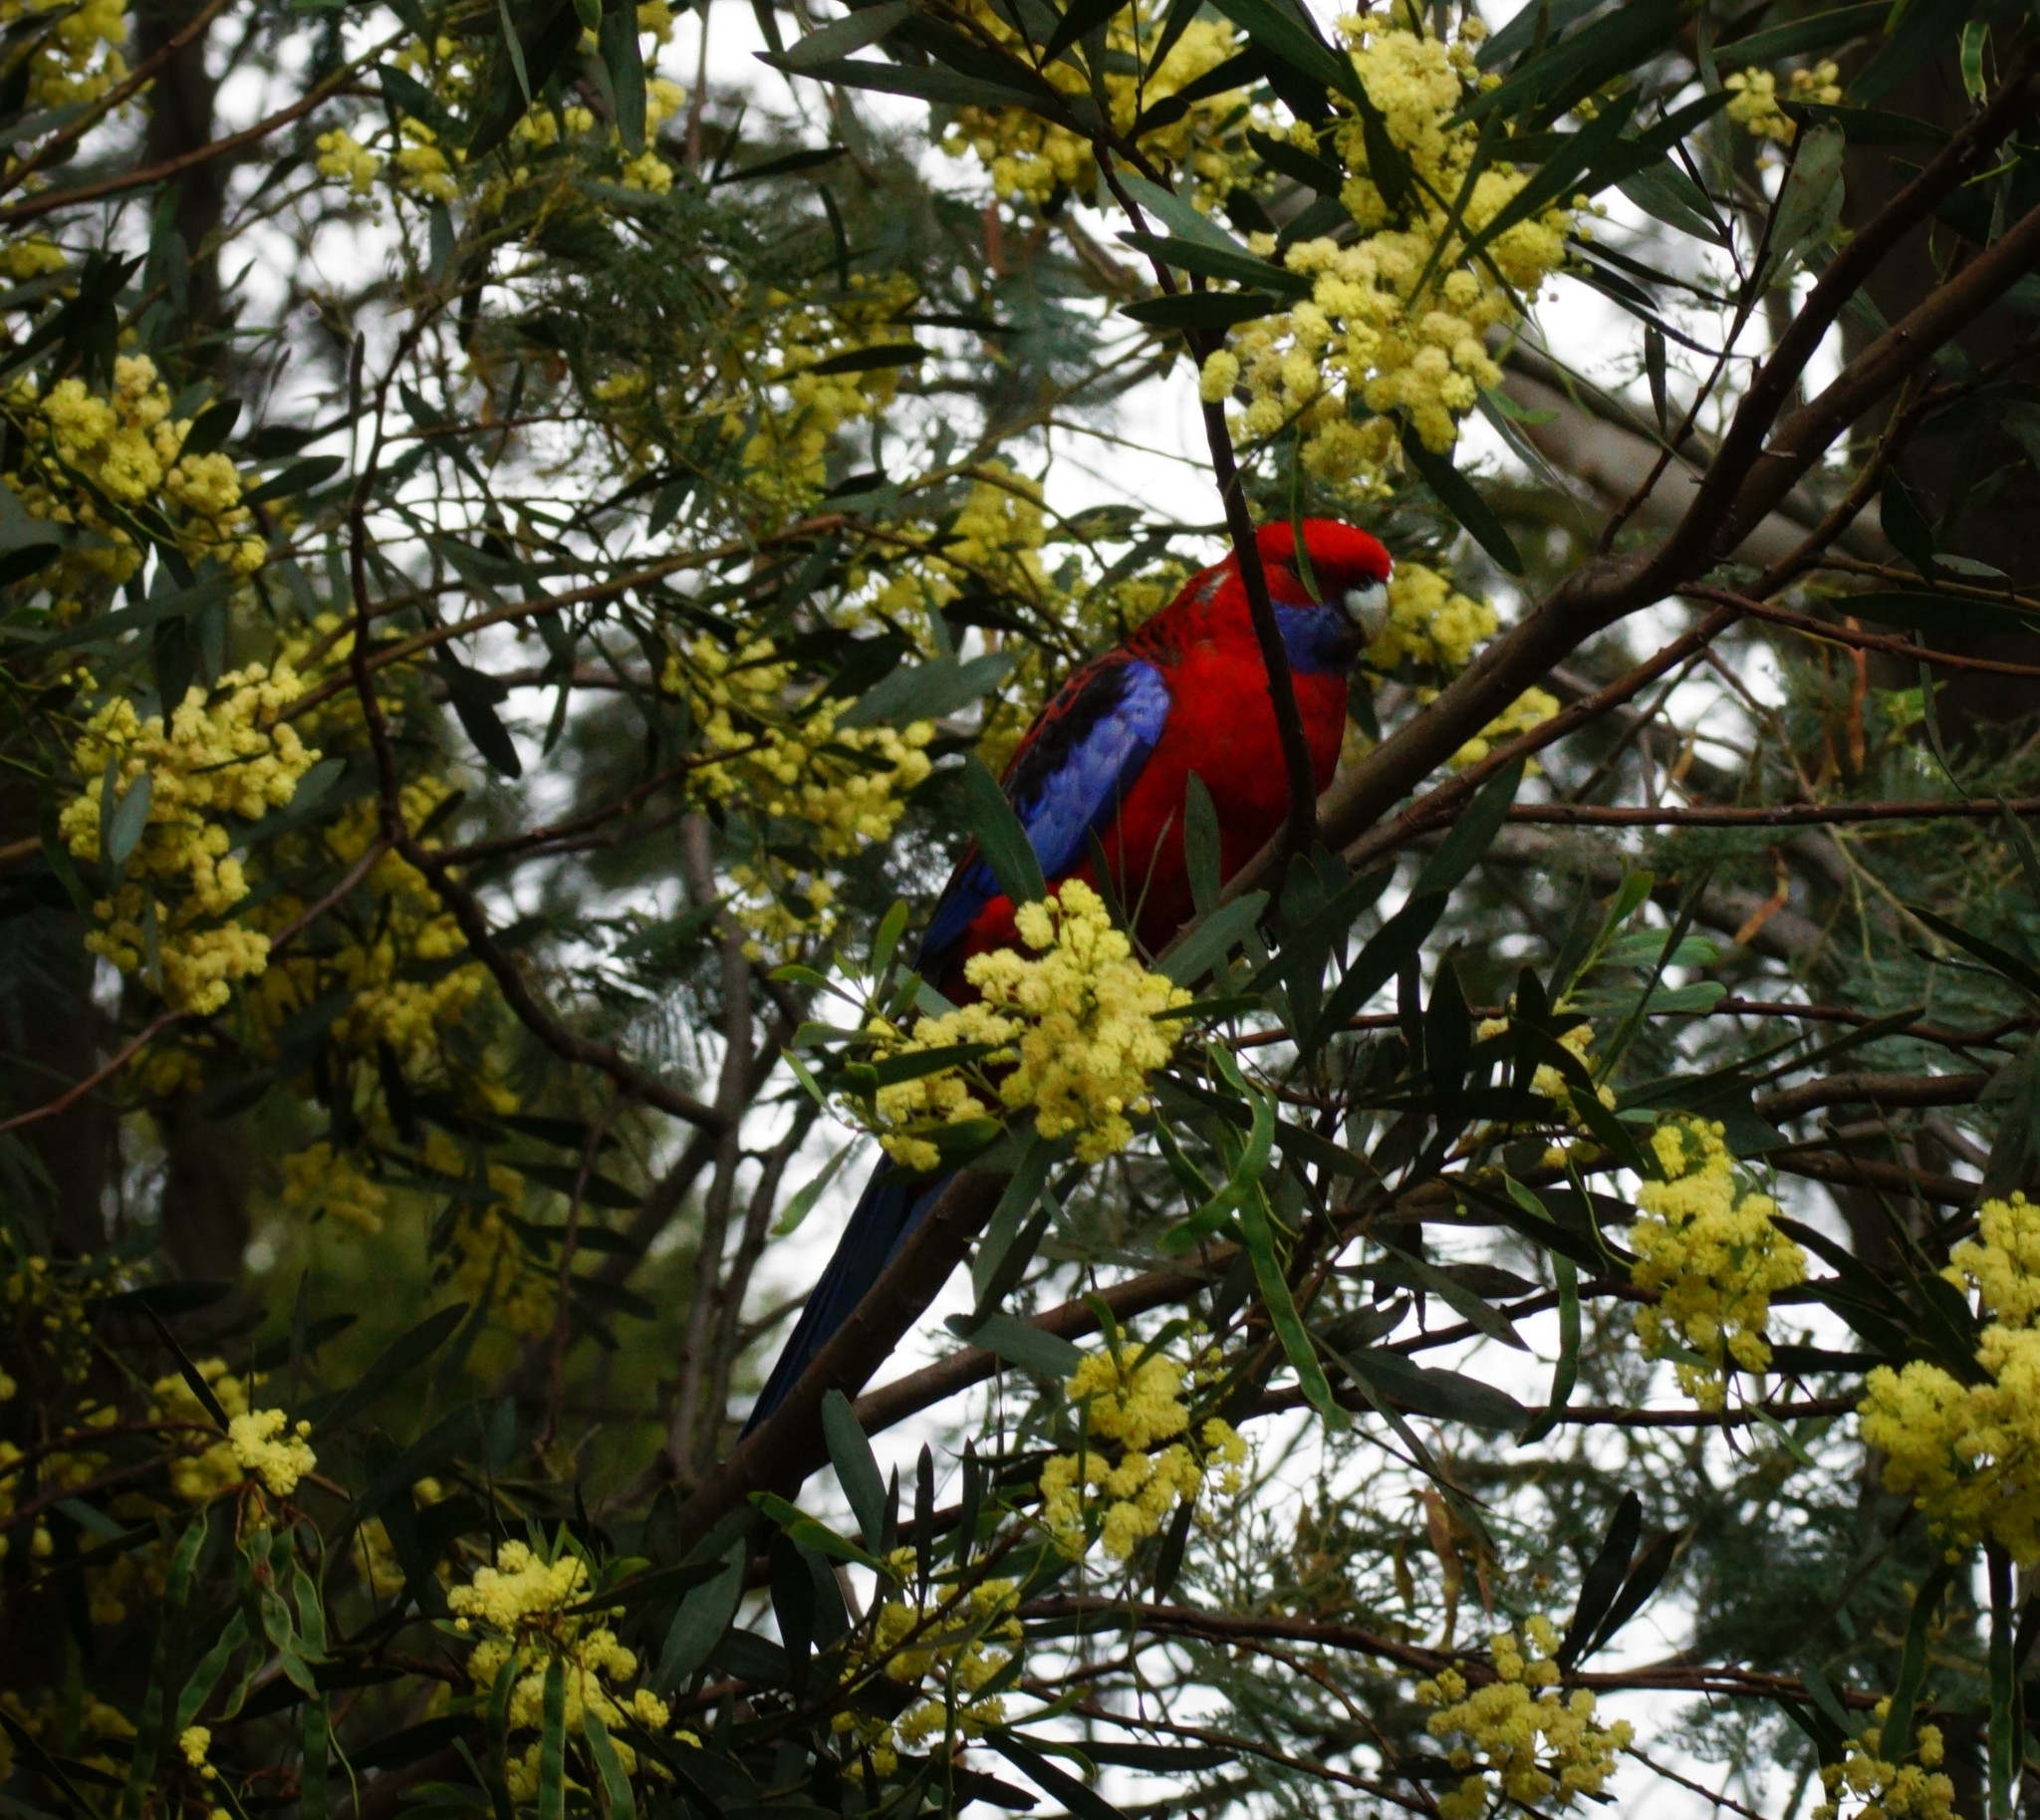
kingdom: Animalia
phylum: Chordata
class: Aves
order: Psittaciformes
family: Psittacidae
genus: Platycercus
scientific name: Platycercus elegans
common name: Crimson rosella
